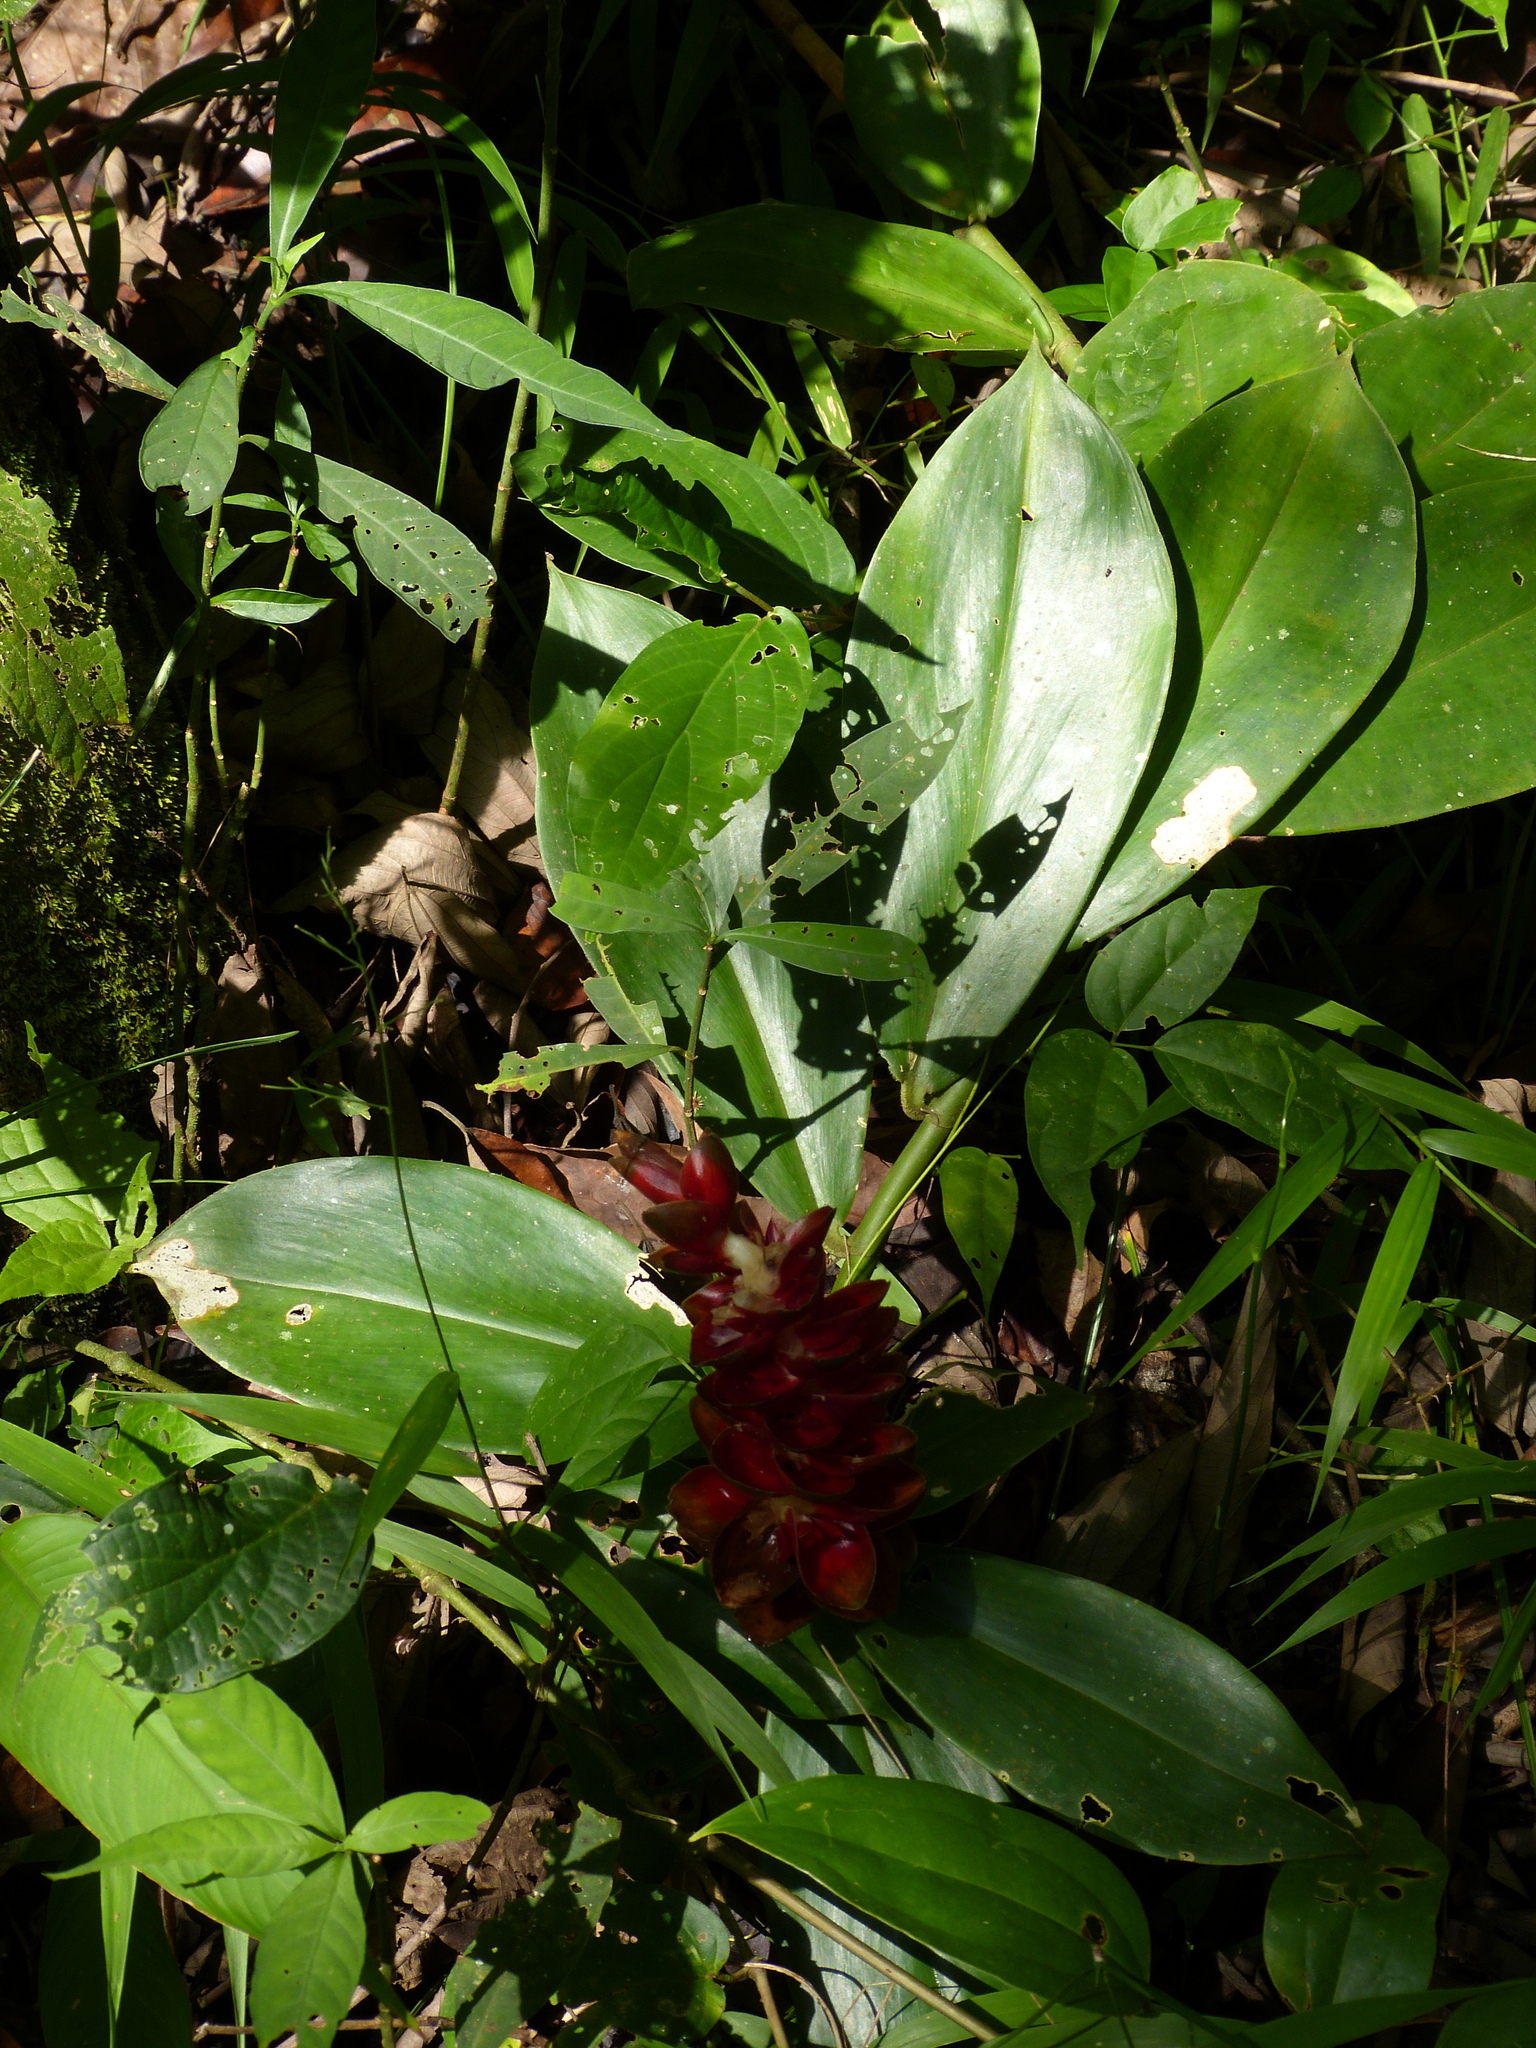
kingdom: Plantae
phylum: Tracheophyta
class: Liliopsida
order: Zingiberales
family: Zingiberaceae
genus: Alpinia
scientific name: Alpinia purpurata
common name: Red ginger
